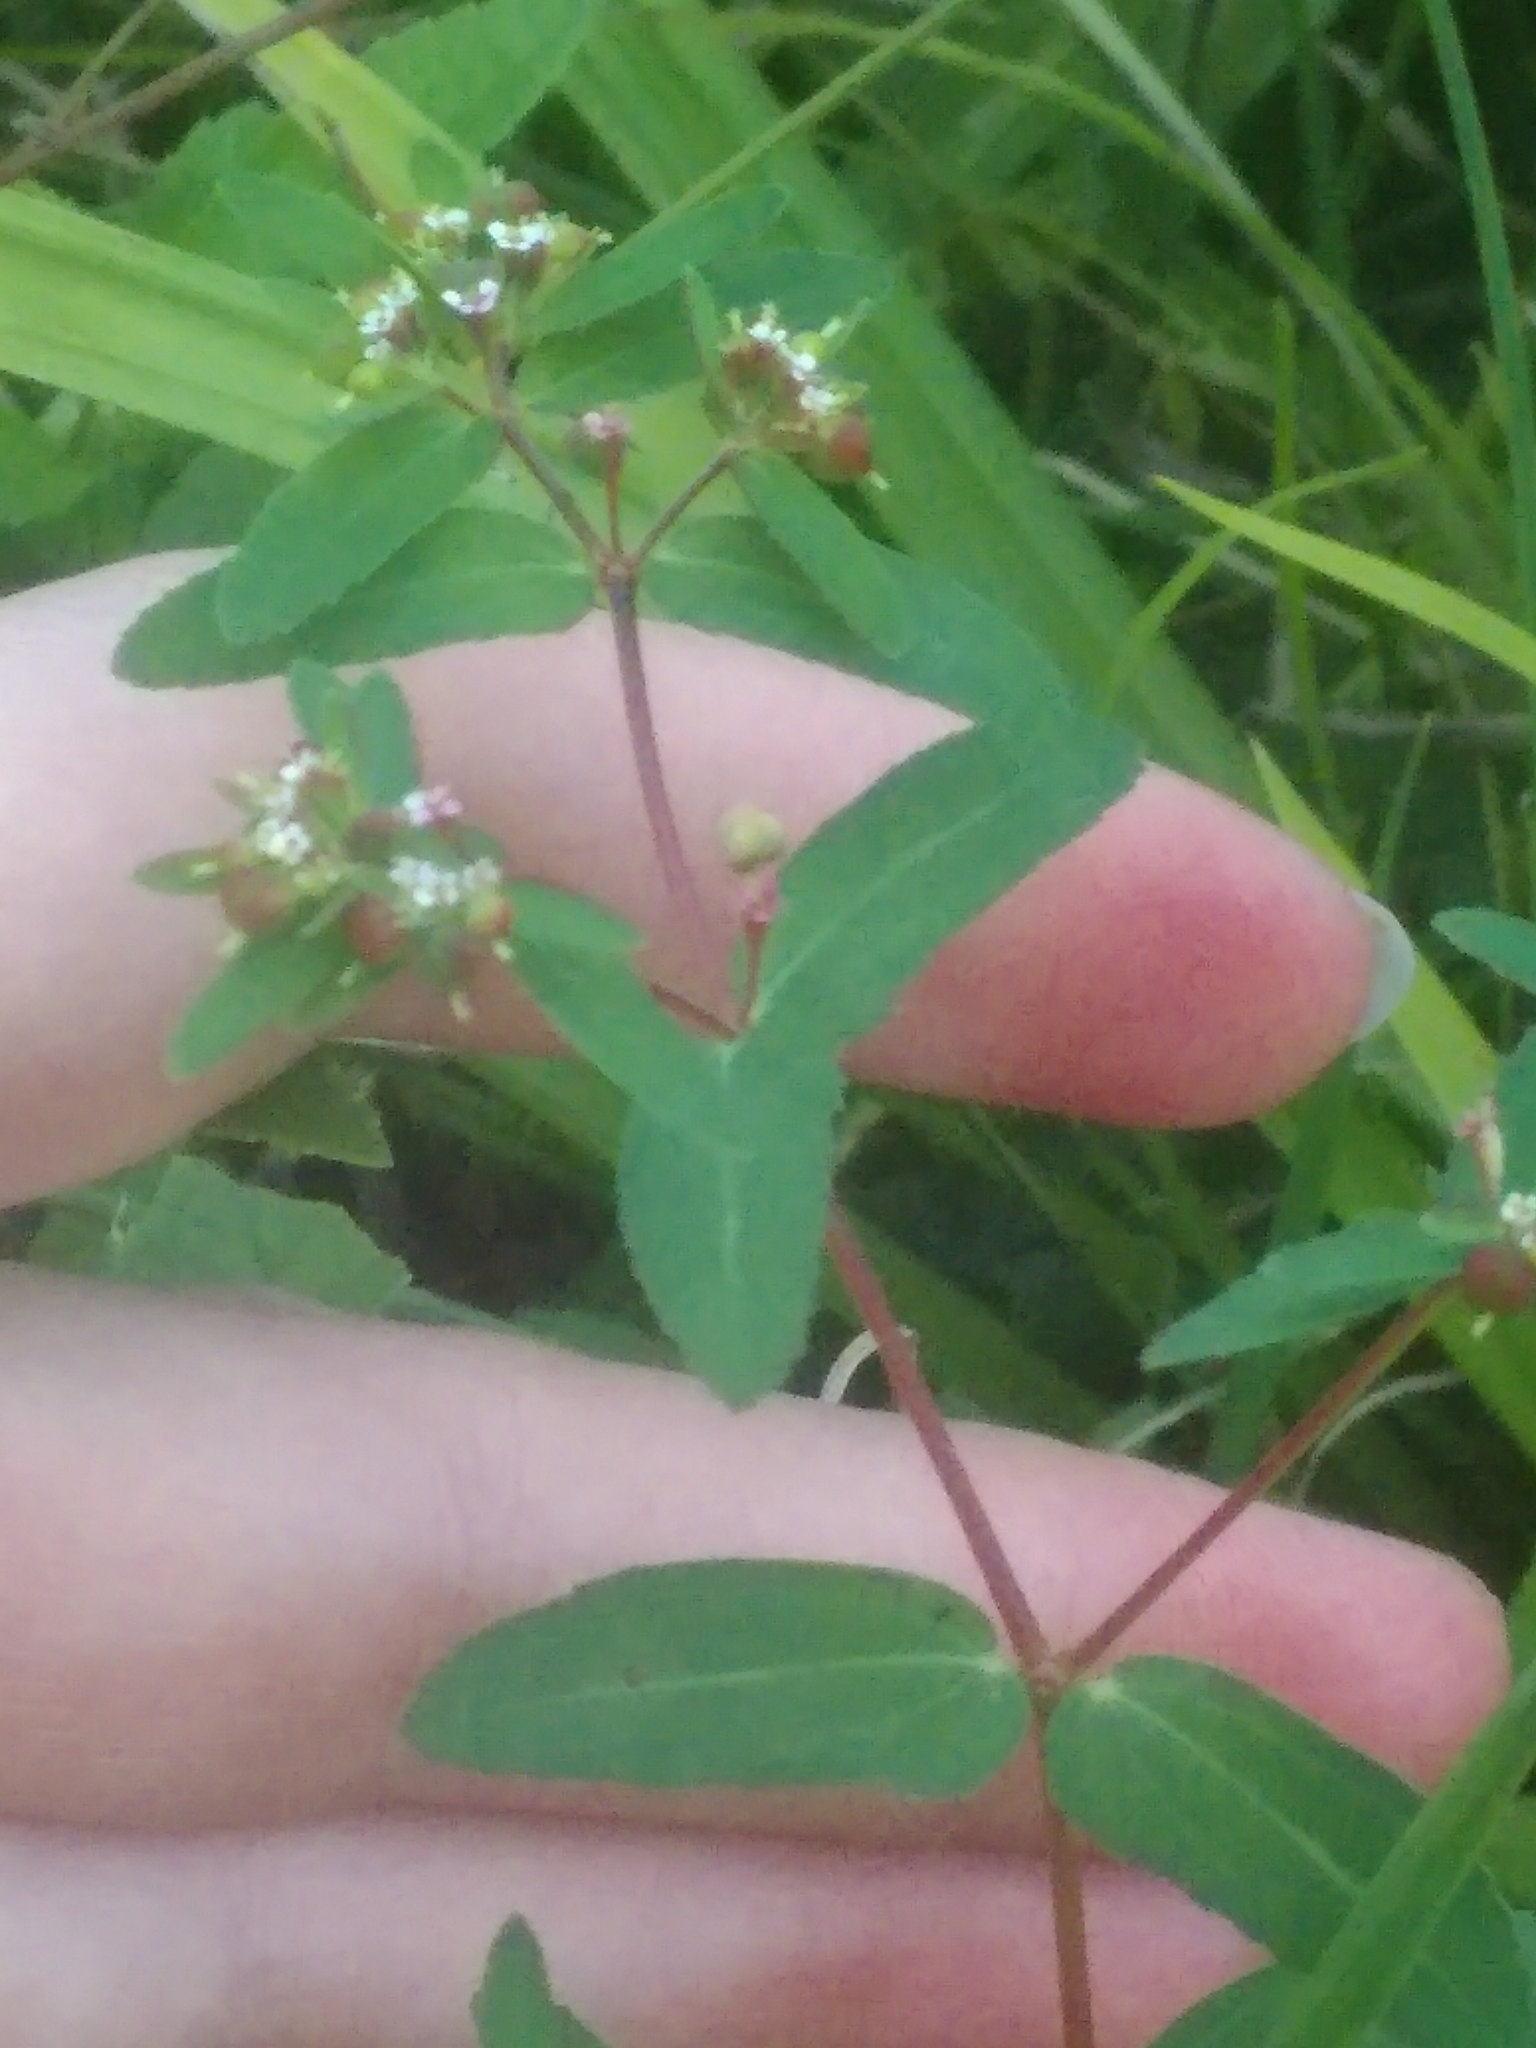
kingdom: Plantae
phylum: Tracheophyta
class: Magnoliopsida
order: Malpighiales
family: Euphorbiaceae
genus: Euphorbia
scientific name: Euphorbia nutans
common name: Eyebane
